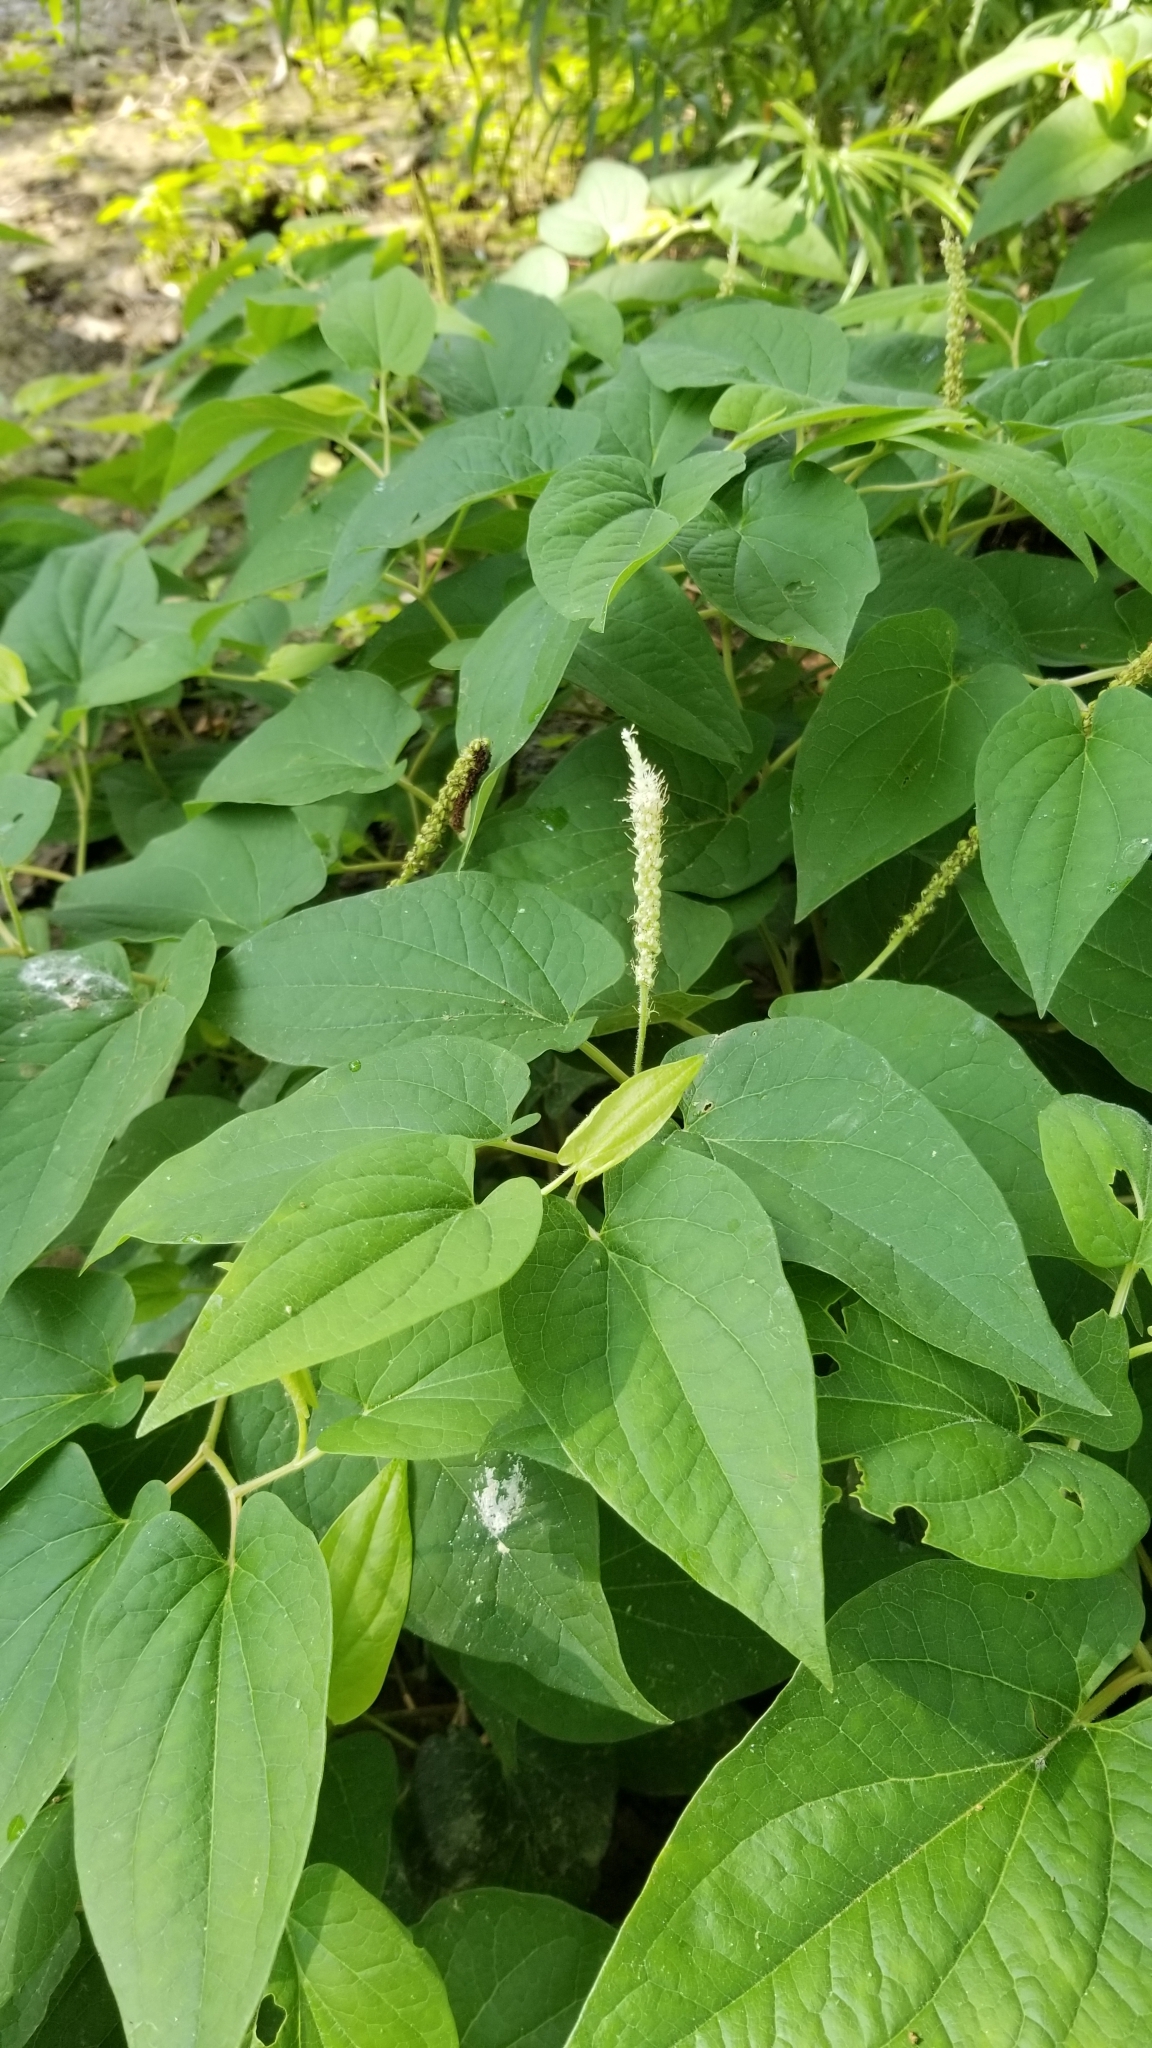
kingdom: Plantae
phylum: Tracheophyta
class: Magnoliopsida
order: Piperales
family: Saururaceae
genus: Saururus
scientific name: Saururus cernuus
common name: Lizard's-tail
